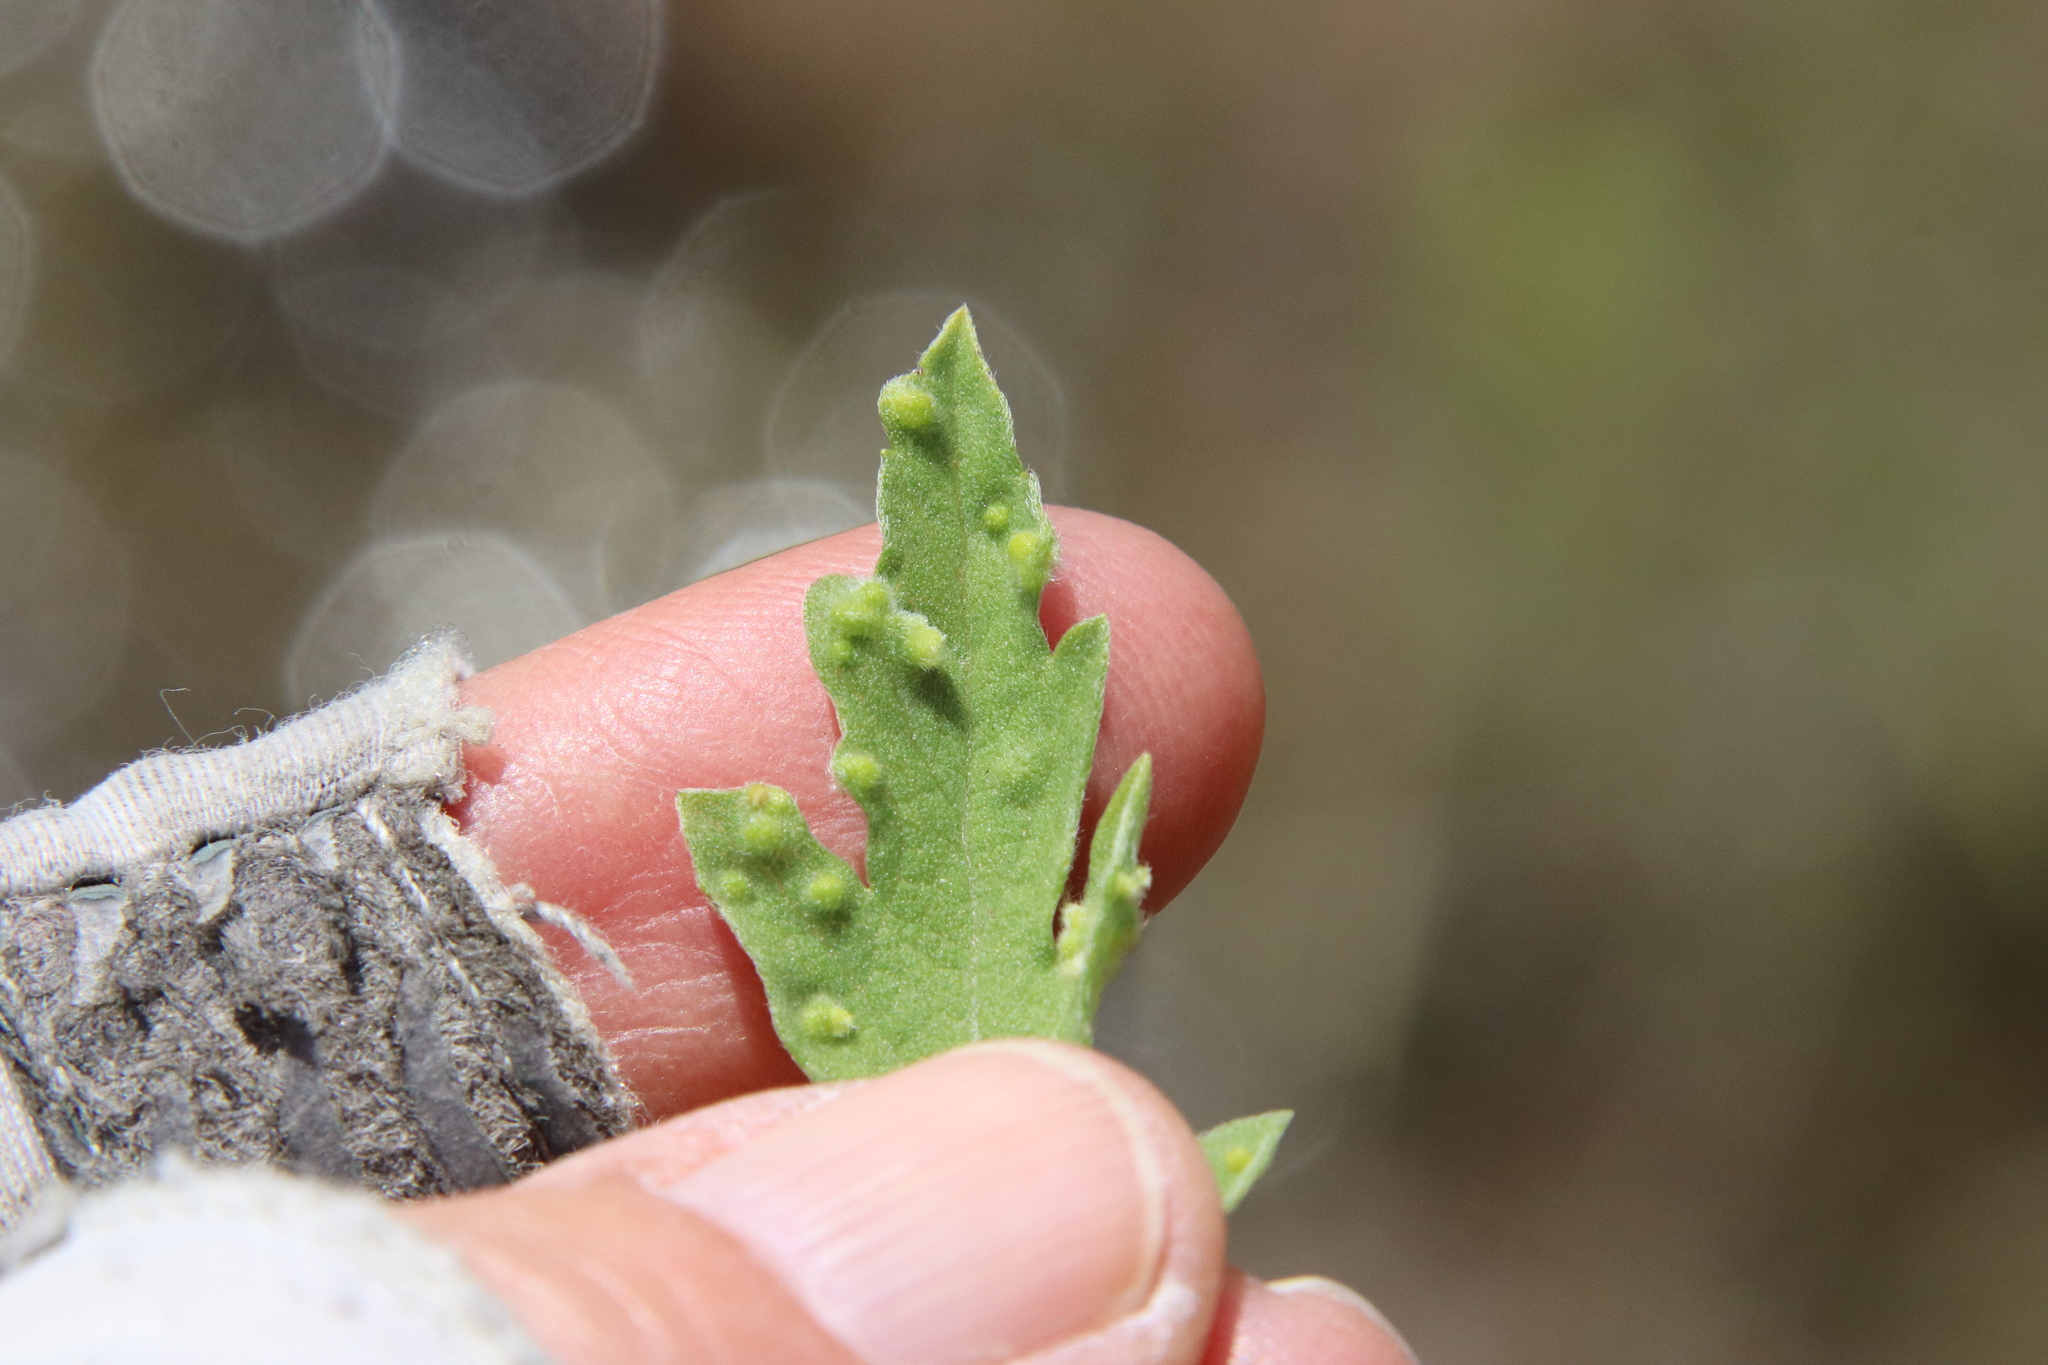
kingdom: Animalia
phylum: Arthropoda
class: Arachnida
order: Trombidiformes
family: Eriophyidae
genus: Aceria
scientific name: Aceria
